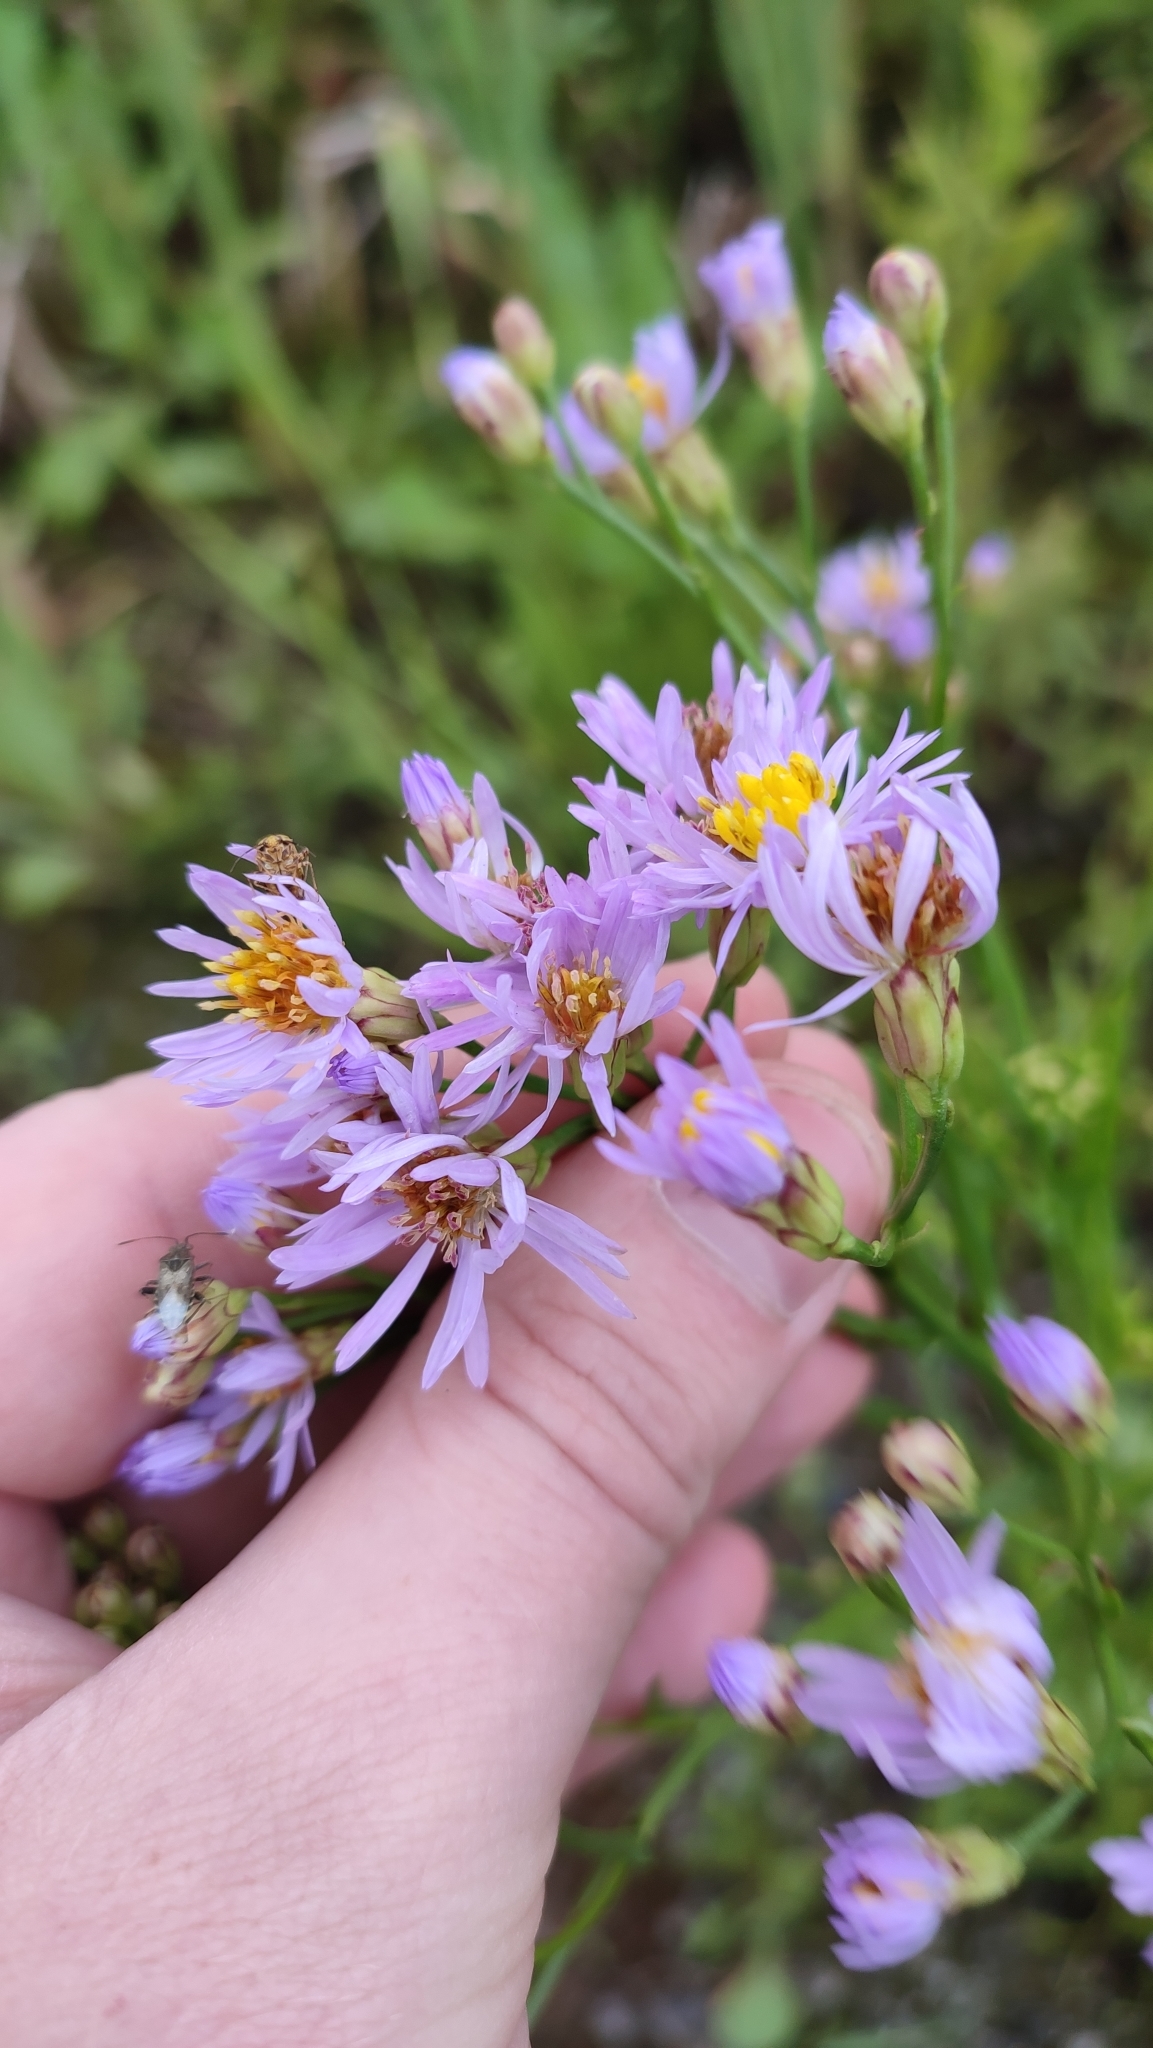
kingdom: Plantae
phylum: Tracheophyta
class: Magnoliopsida
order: Asterales
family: Asteraceae
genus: Tripolium
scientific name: Tripolium pannonicum
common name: Sea aster
